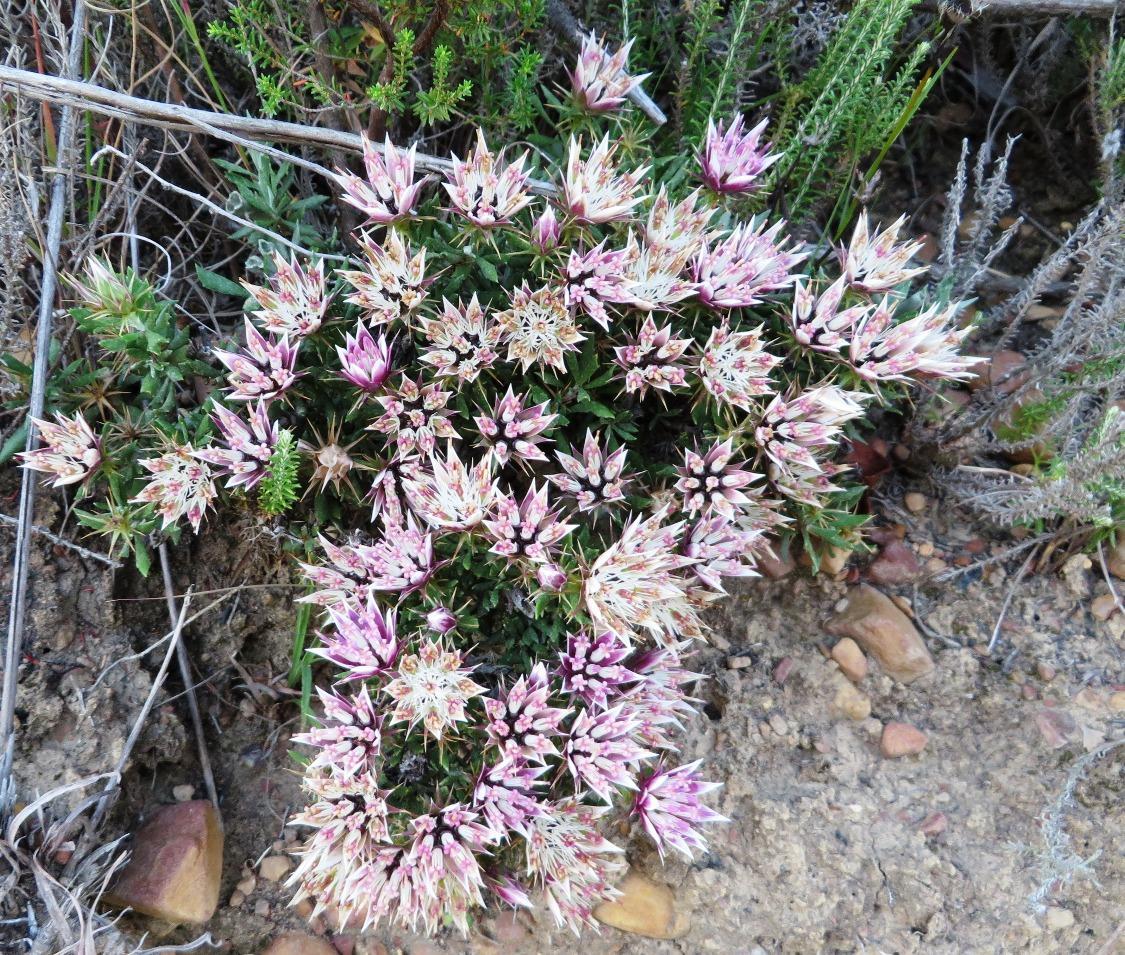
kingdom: Plantae
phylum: Tracheophyta
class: Magnoliopsida
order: Asterales
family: Asteraceae
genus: Macledium
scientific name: Macledium spinosum
